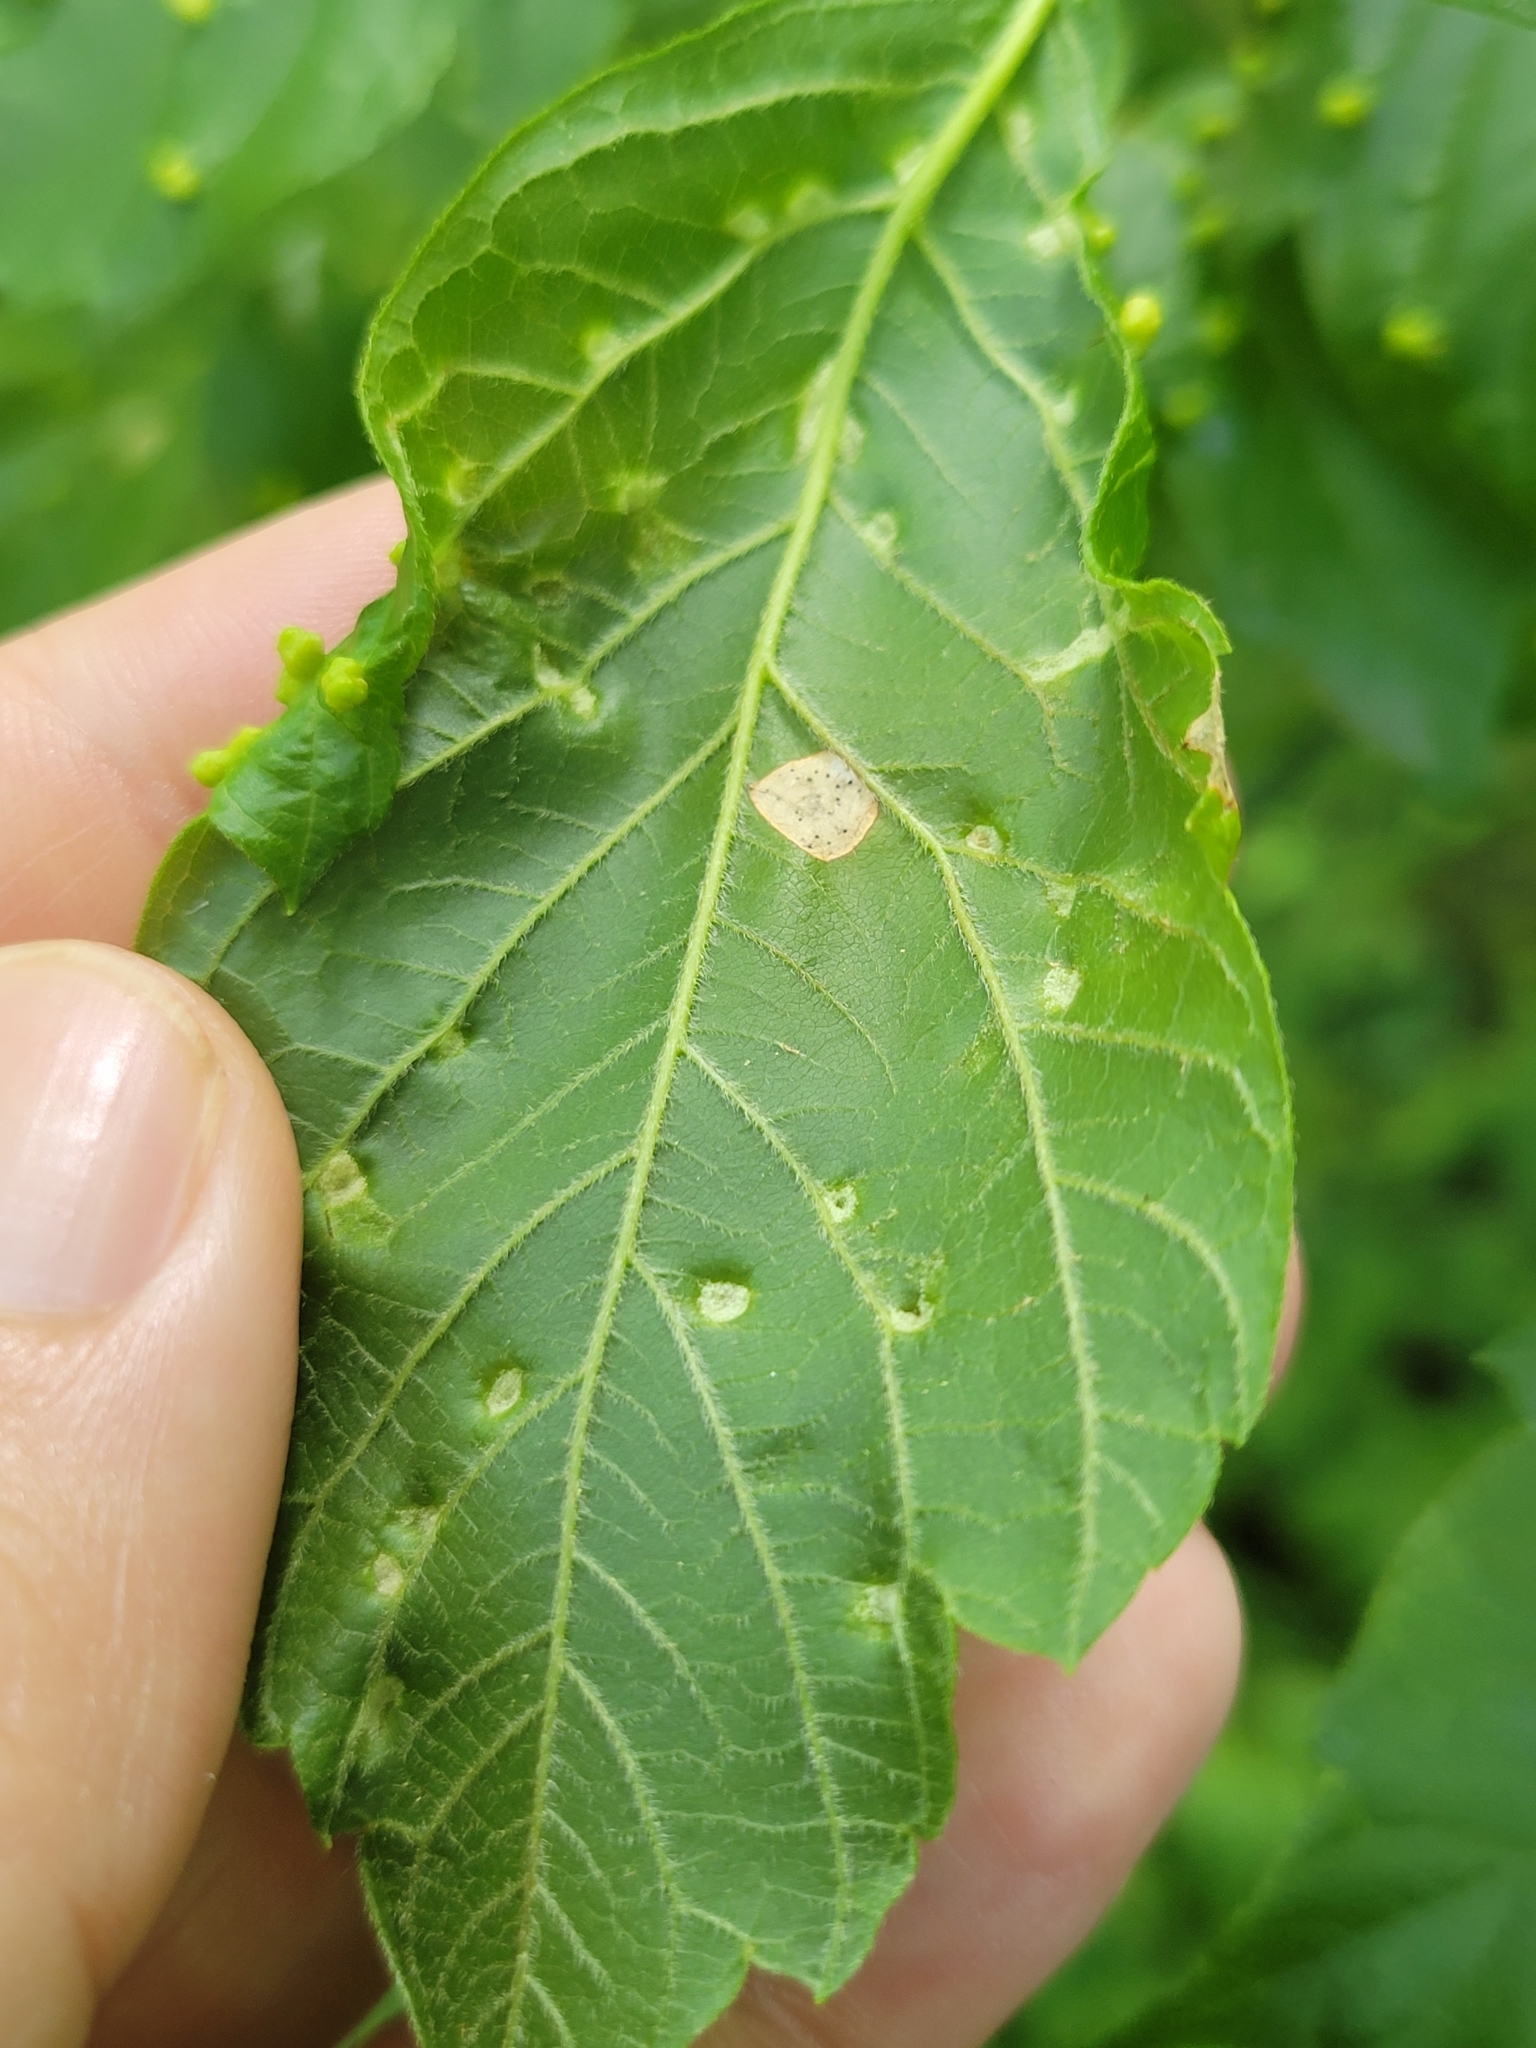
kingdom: Animalia
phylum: Arthropoda
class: Arachnida
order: Trombidiformes
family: Eriophyidae
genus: Aceria
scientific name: Aceria
